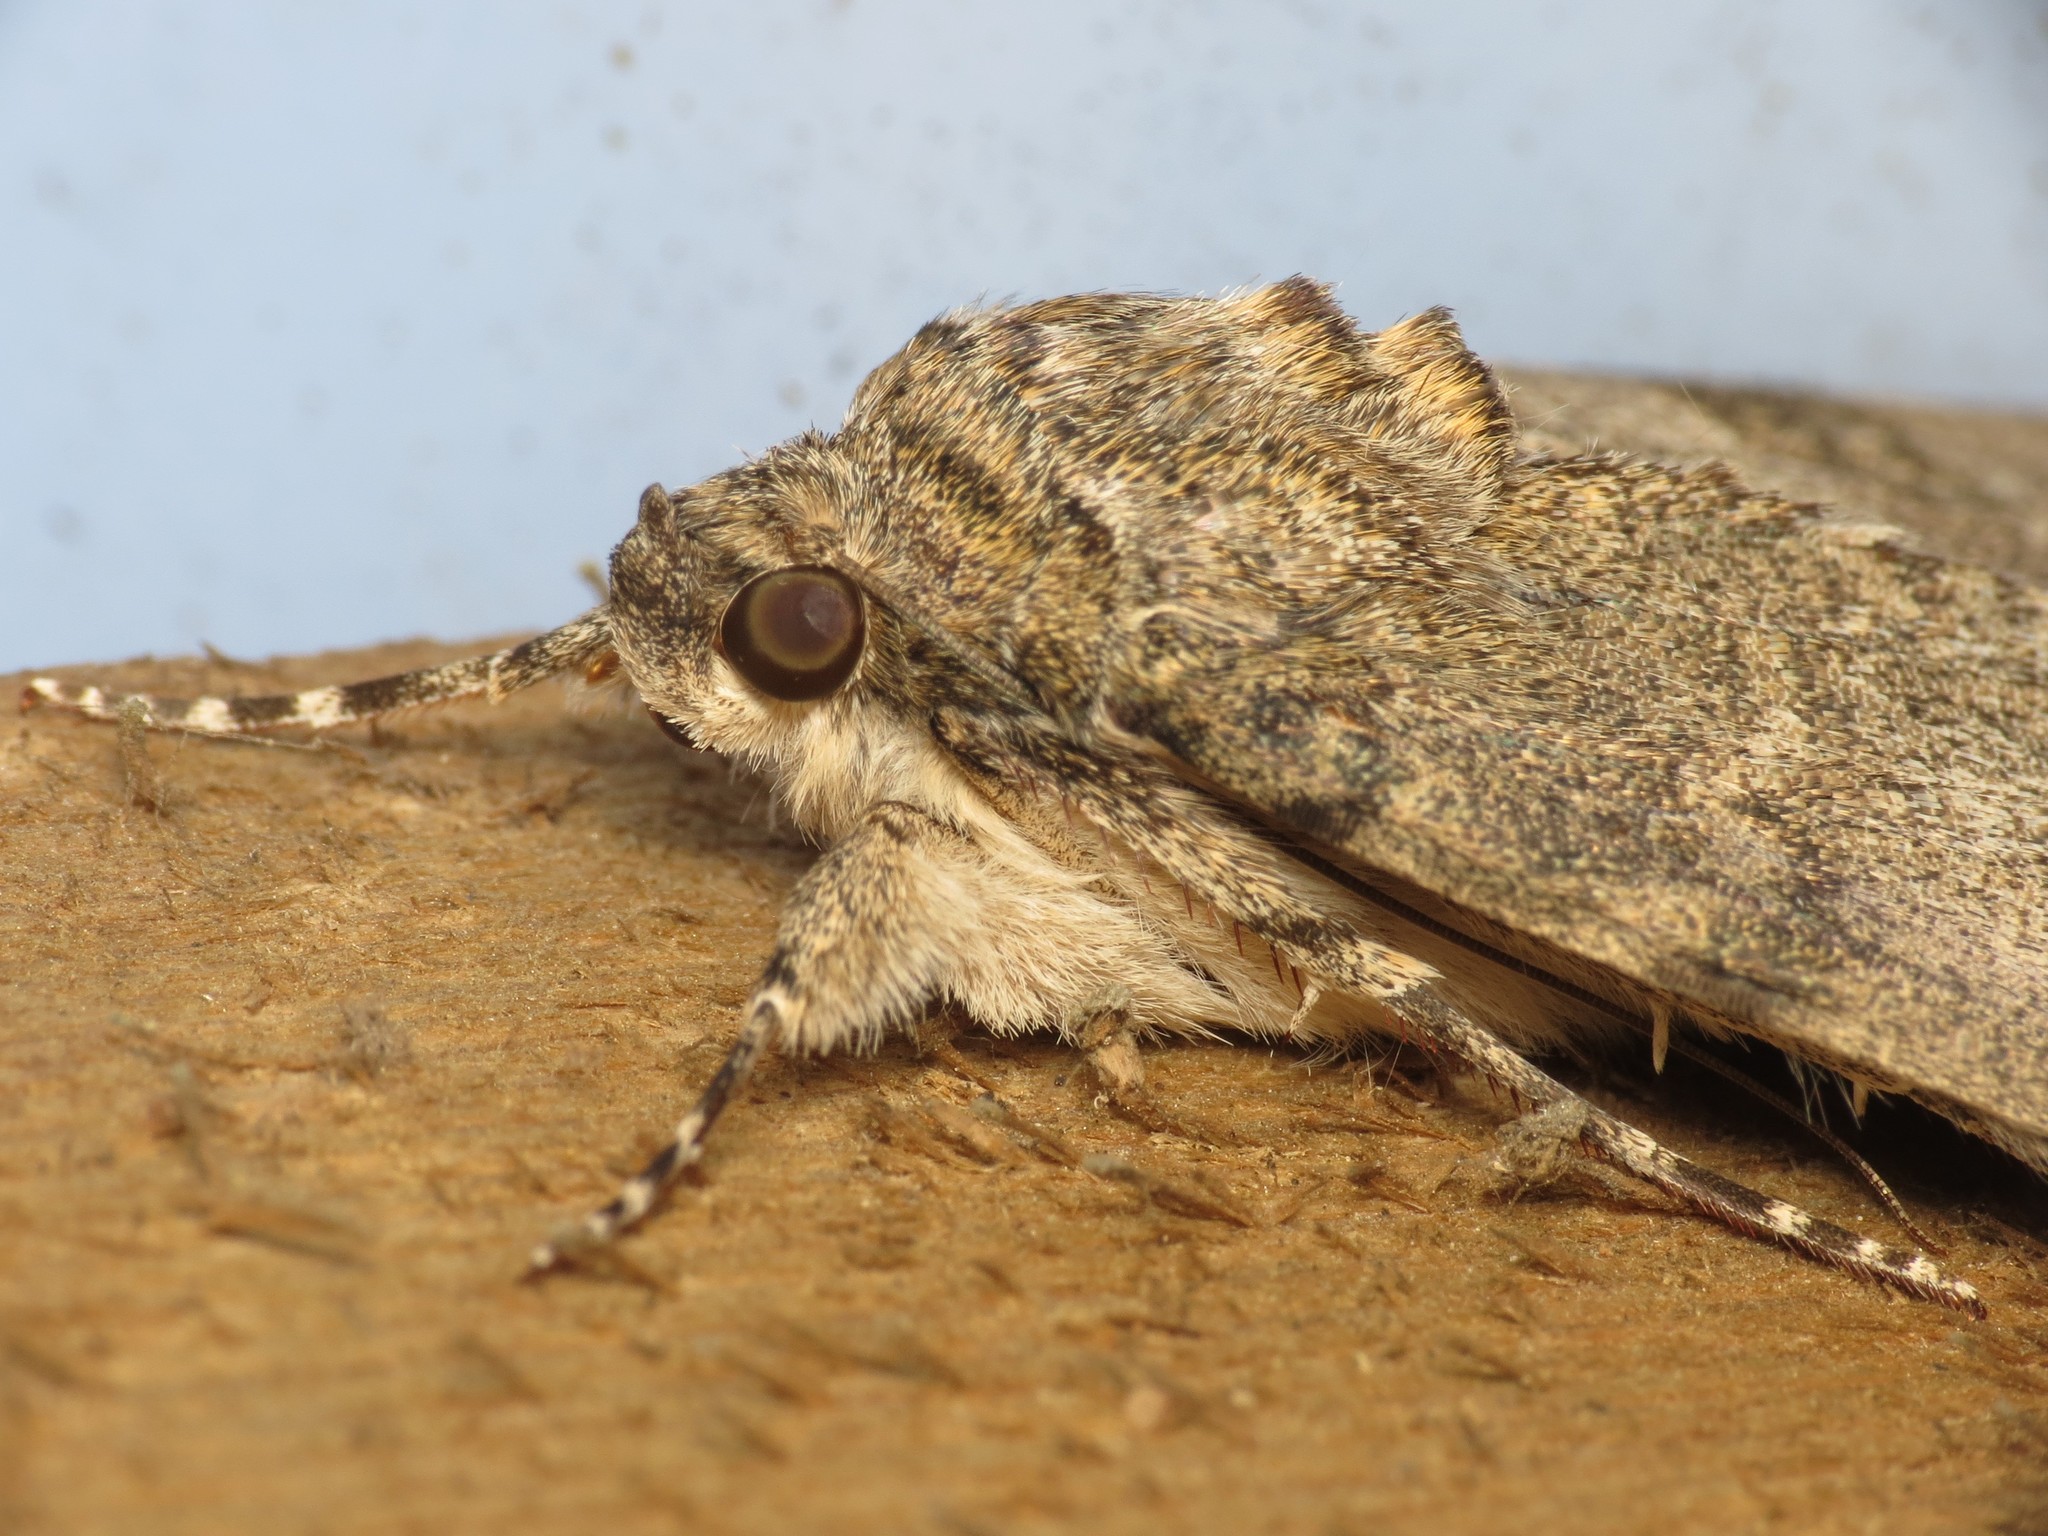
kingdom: Animalia
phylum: Arthropoda
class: Insecta
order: Lepidoptera
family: Erebidae
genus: Catocala
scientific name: Catocala nupta
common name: Red underwing
